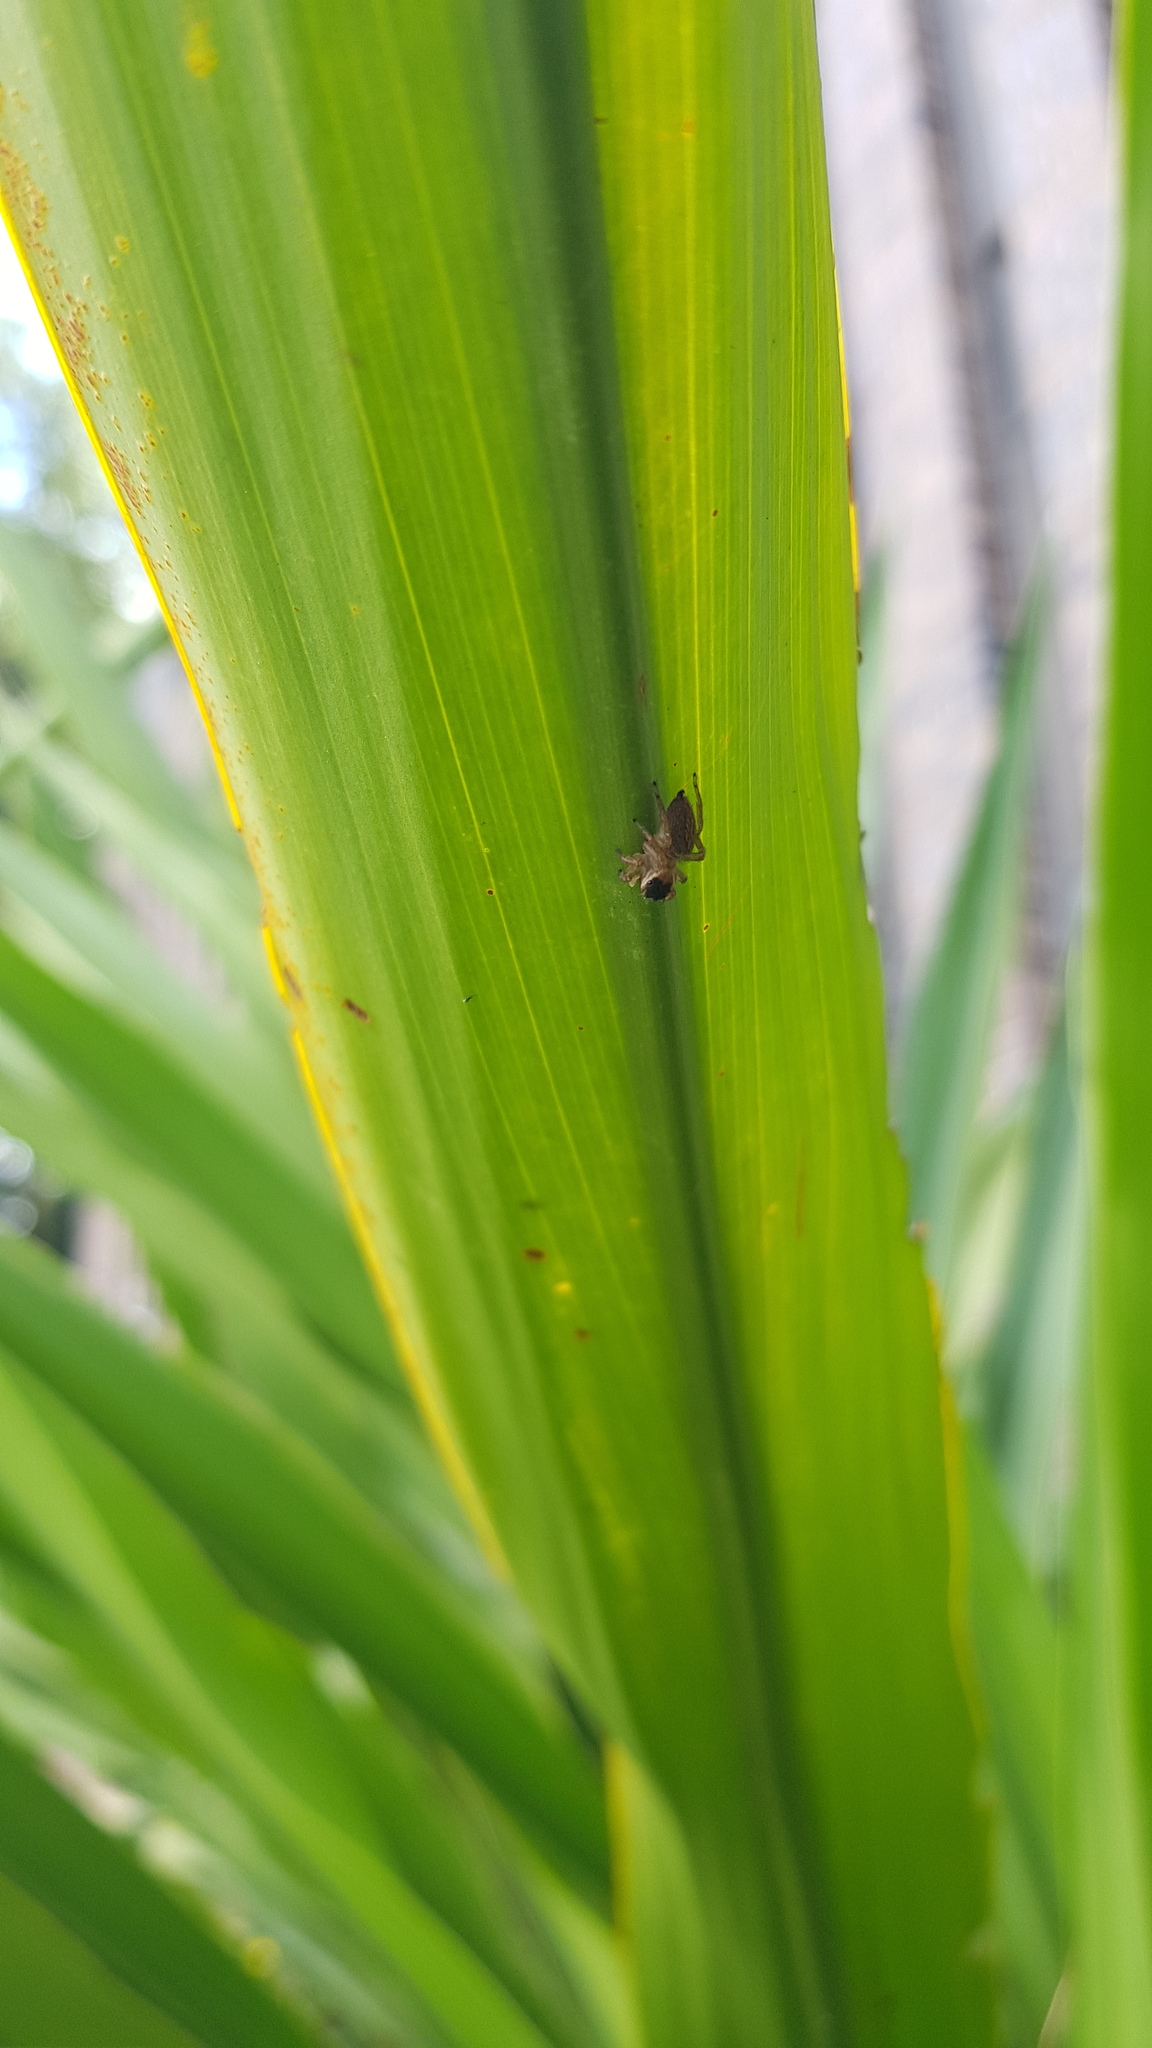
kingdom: Animalia
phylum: Arthropoda
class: Arachnida
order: Araneae
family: Salticidae
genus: Maratus
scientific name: Maratus griseus
